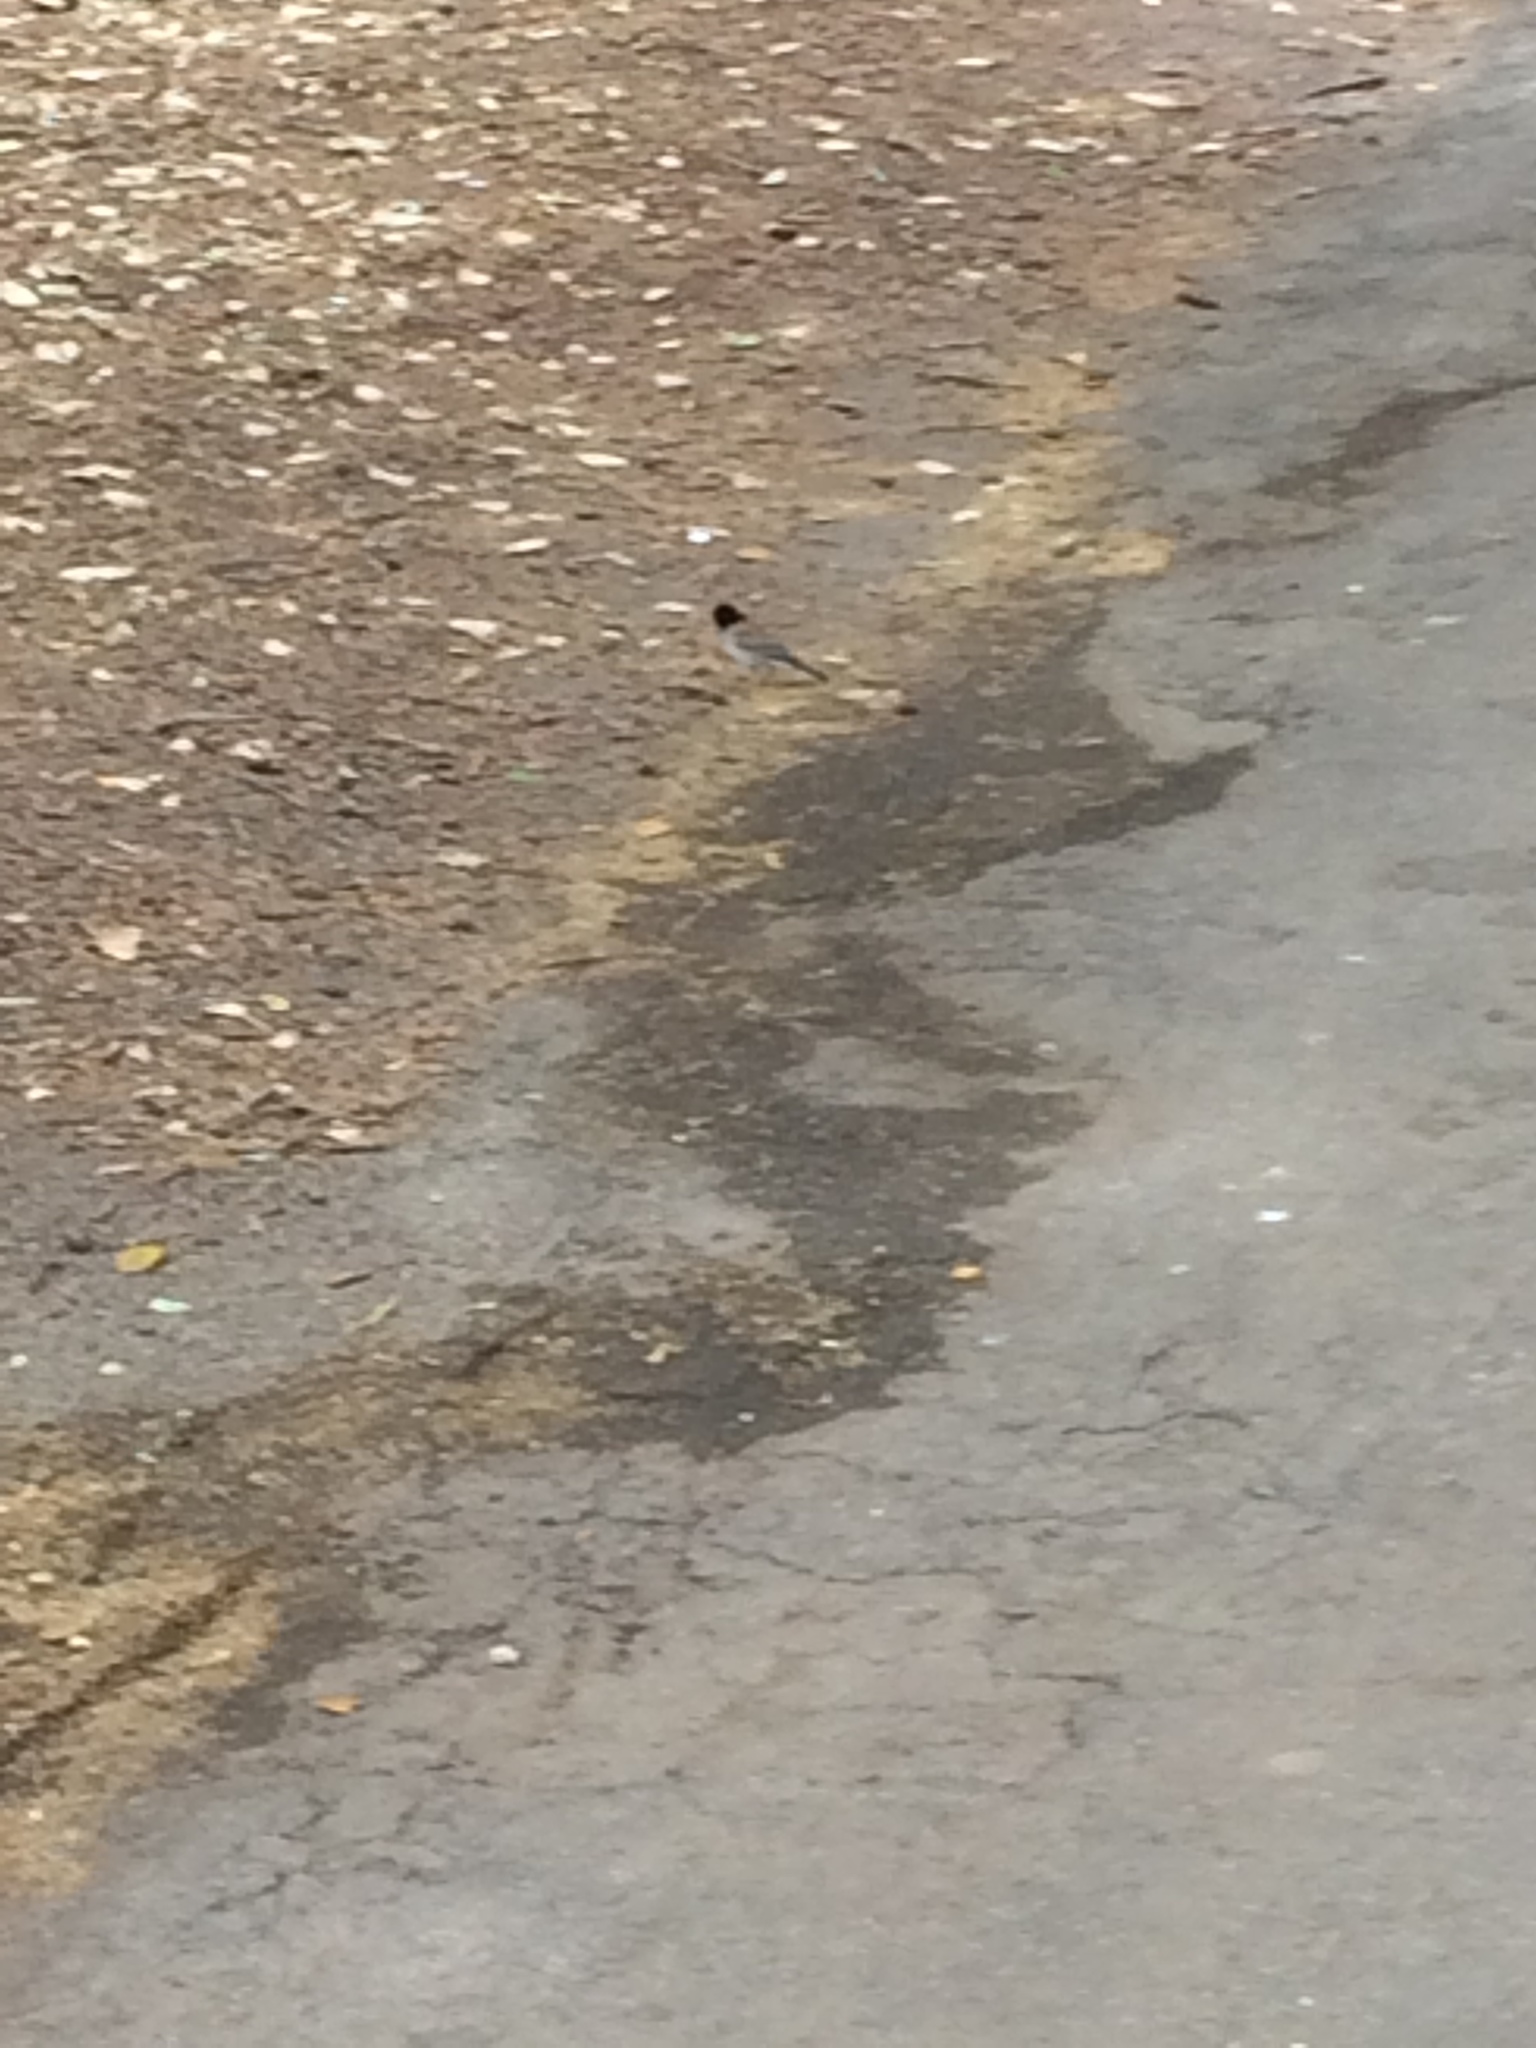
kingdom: Animalia
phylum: Chordata
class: Aves
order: Passeriformes
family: Passerellidae
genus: Junco
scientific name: Junco hyemalis
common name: Dark-eyed junco
